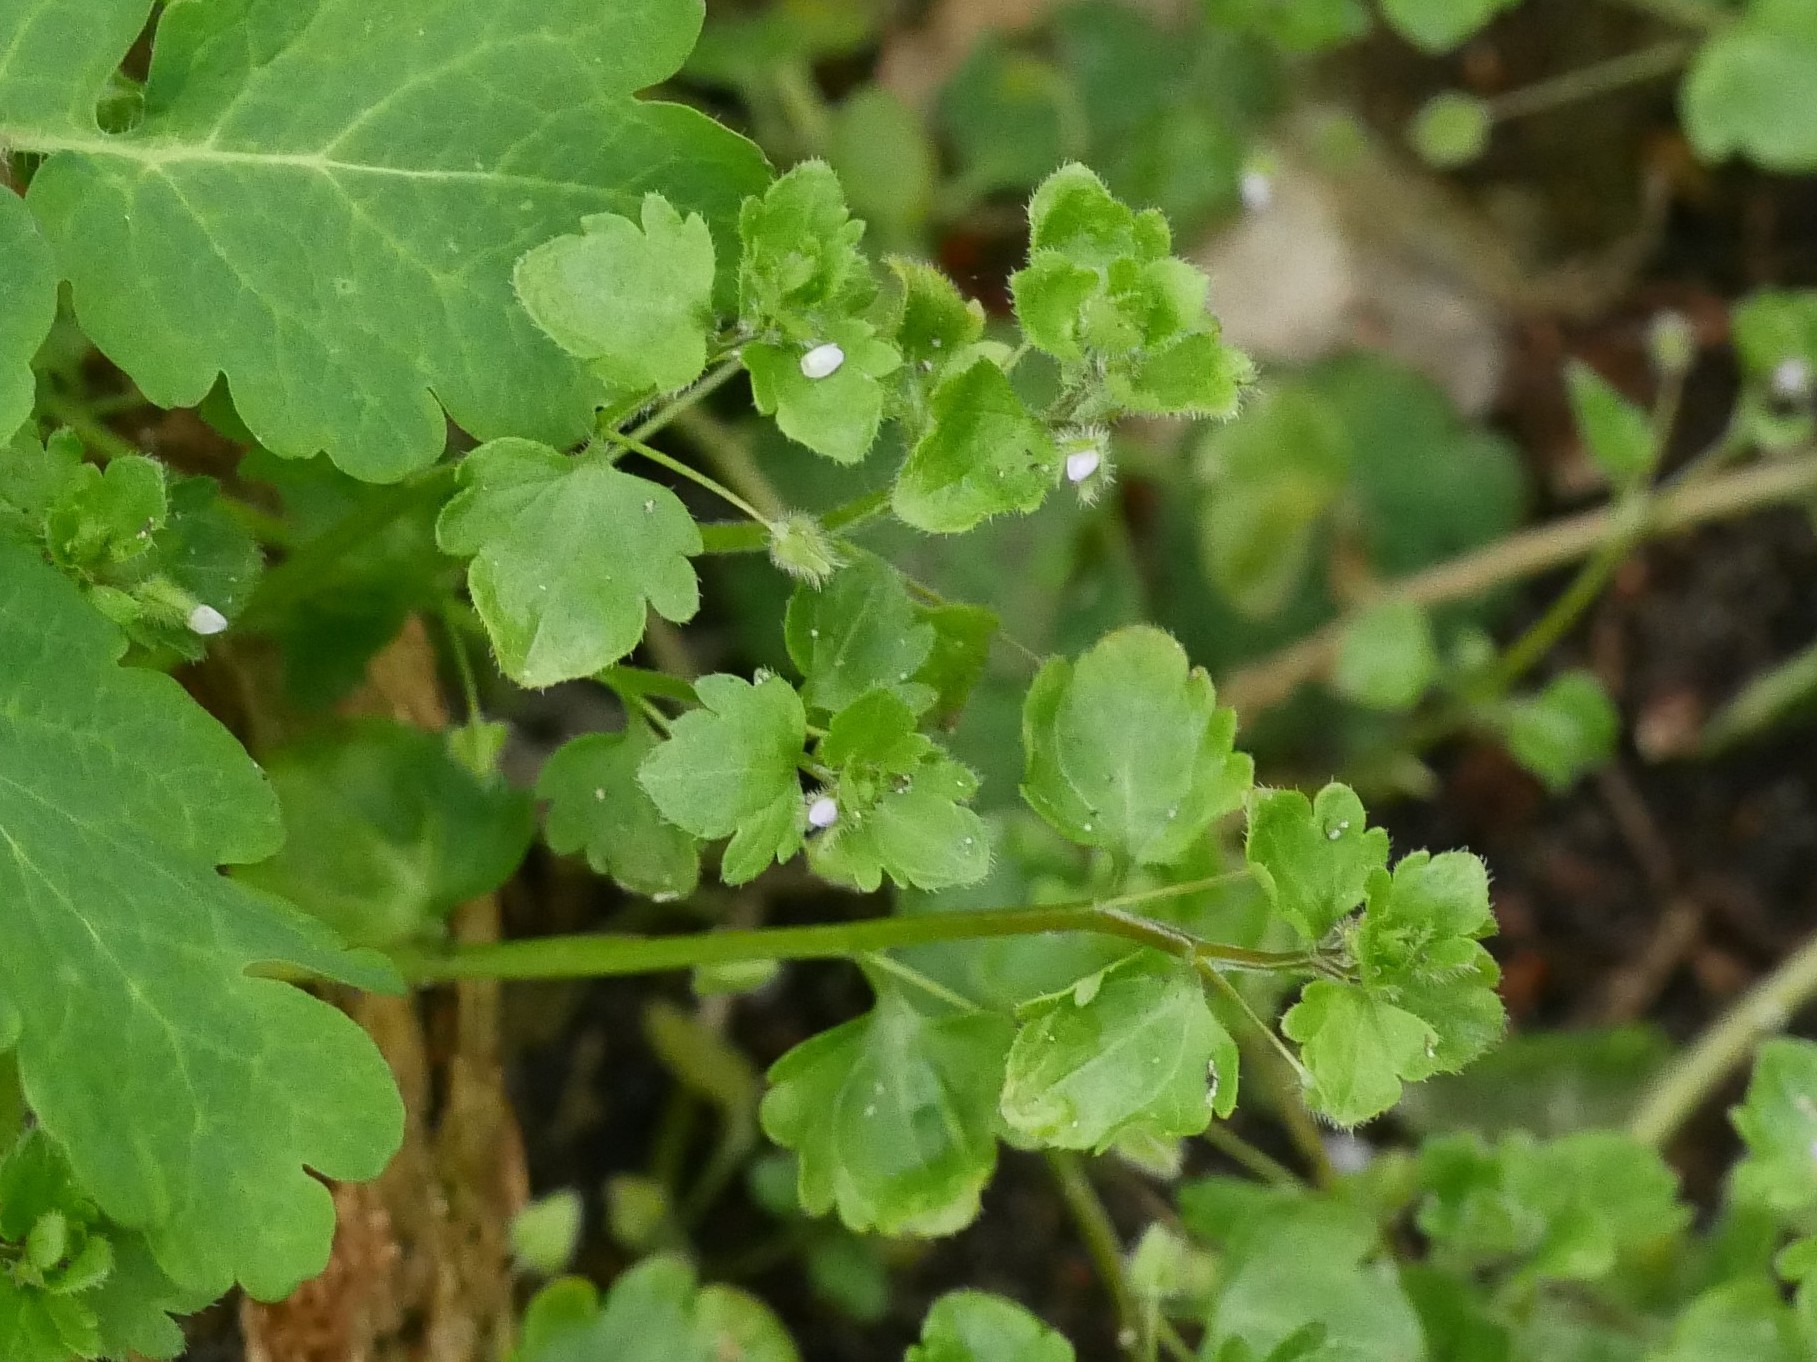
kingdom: Plantae
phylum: Tracheophyta
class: Magnoliopsida
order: Lamiales
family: Plantaginaceae
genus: Veronica
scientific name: Veronica sublobata
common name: False ivy-leaved speedwell
